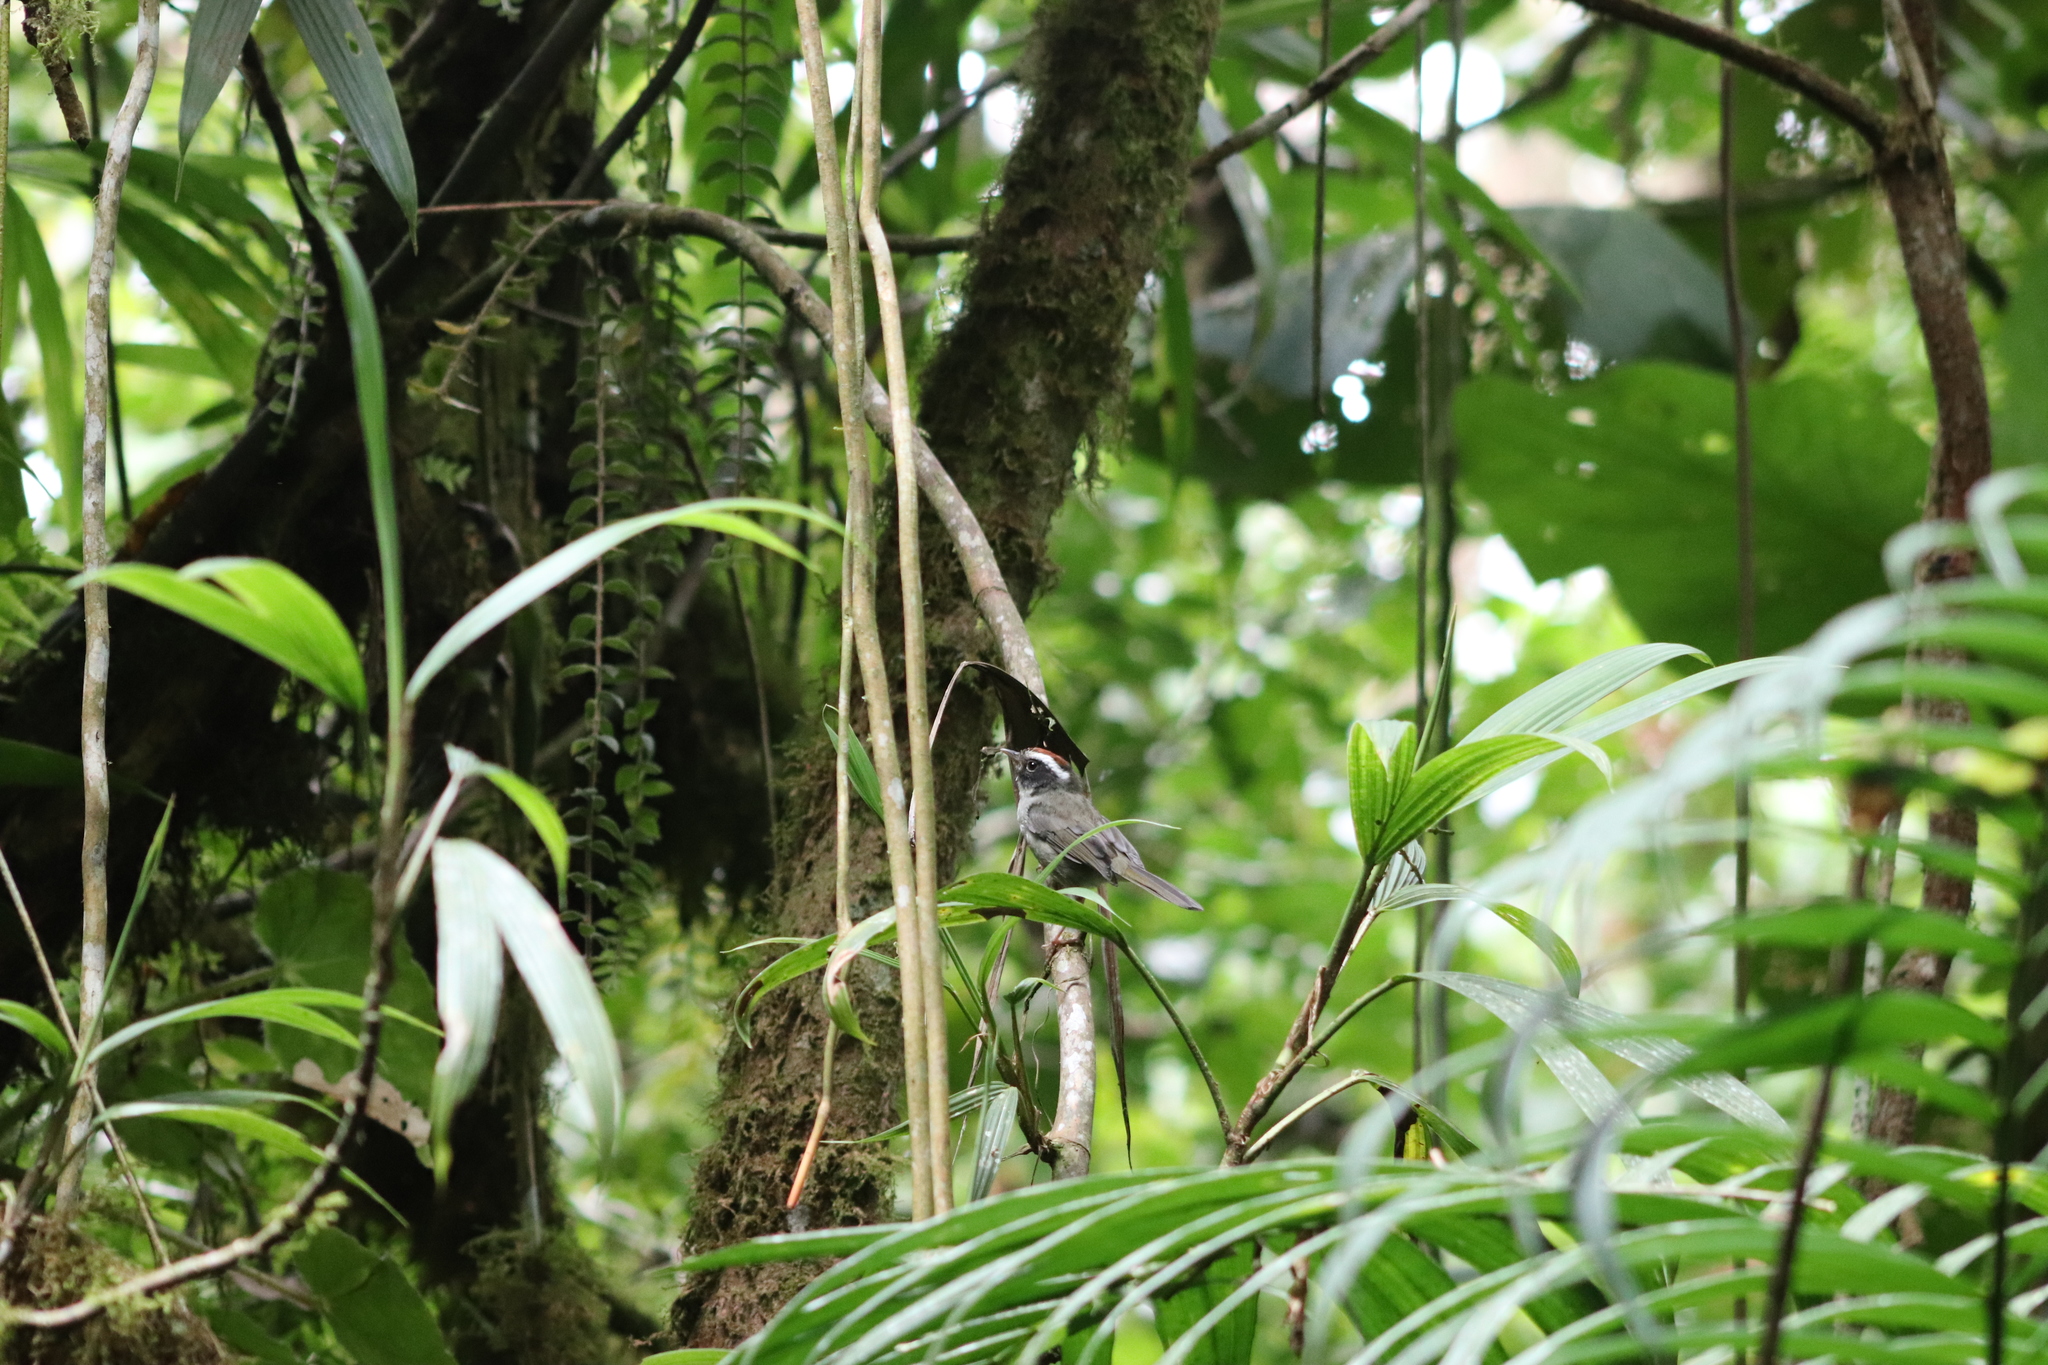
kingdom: Animalia
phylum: Chordata
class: Aves
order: Passeriformes
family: Parulidae
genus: Basileuterus
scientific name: Basileuterus melanogenys
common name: Black-cheeked warbler
